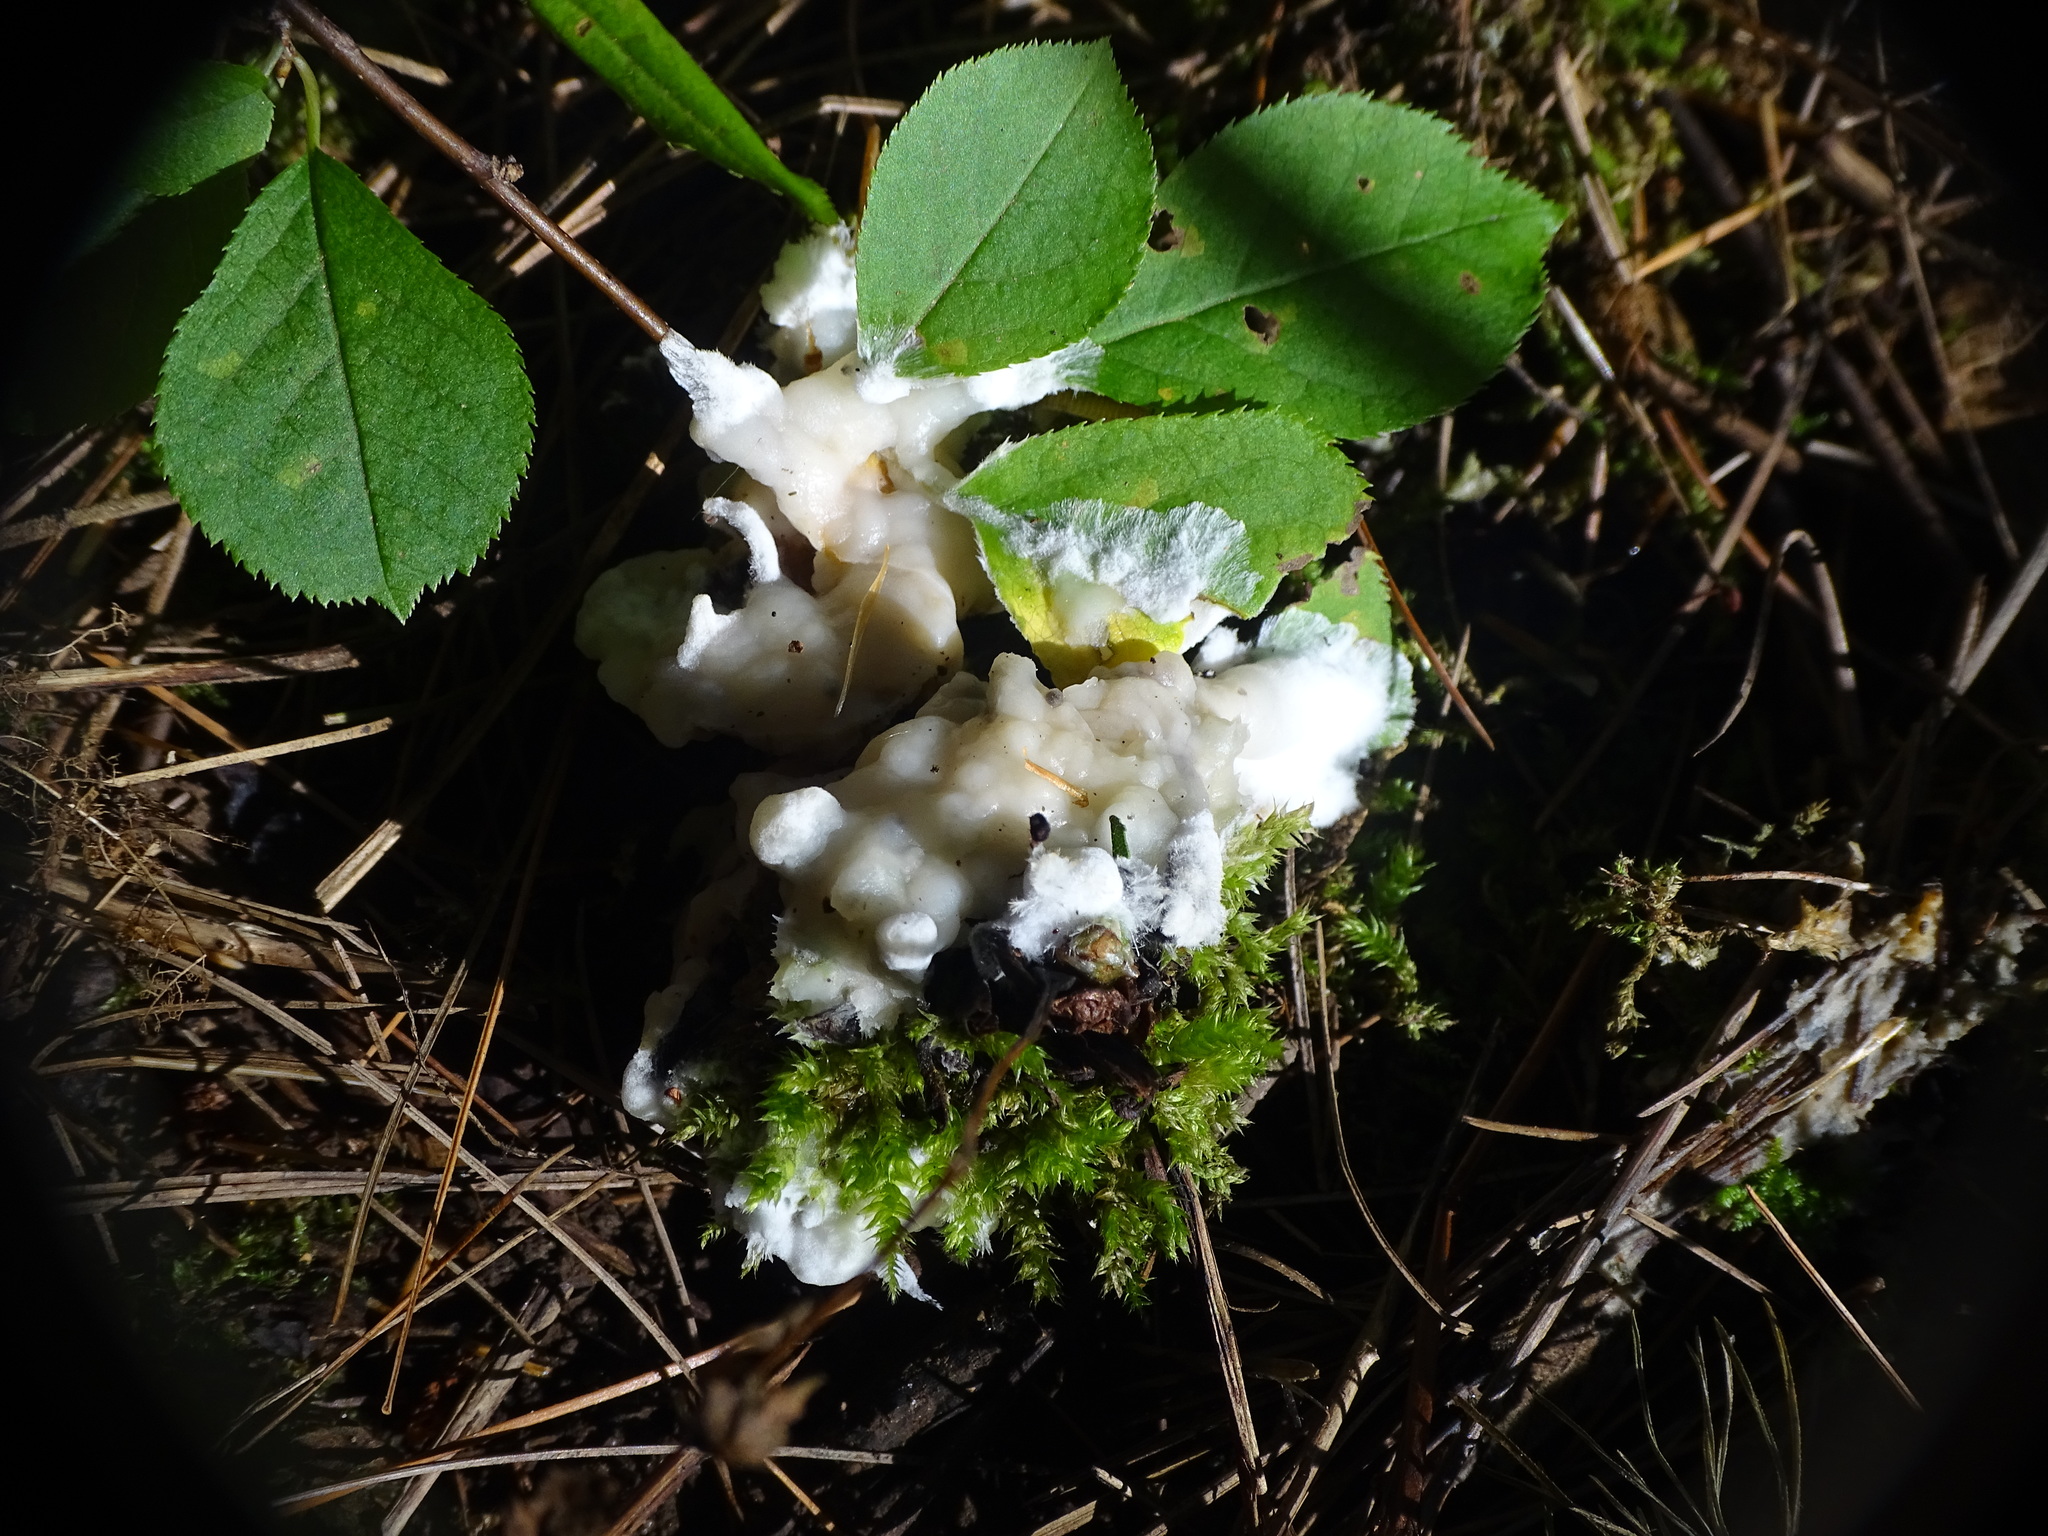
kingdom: Fungi
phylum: Basidiomycota
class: Agaricomycetes
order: Sebacinales
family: Sebacinaceae
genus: Sebacina
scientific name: Sebacina incrustans
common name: Enveloping crust
